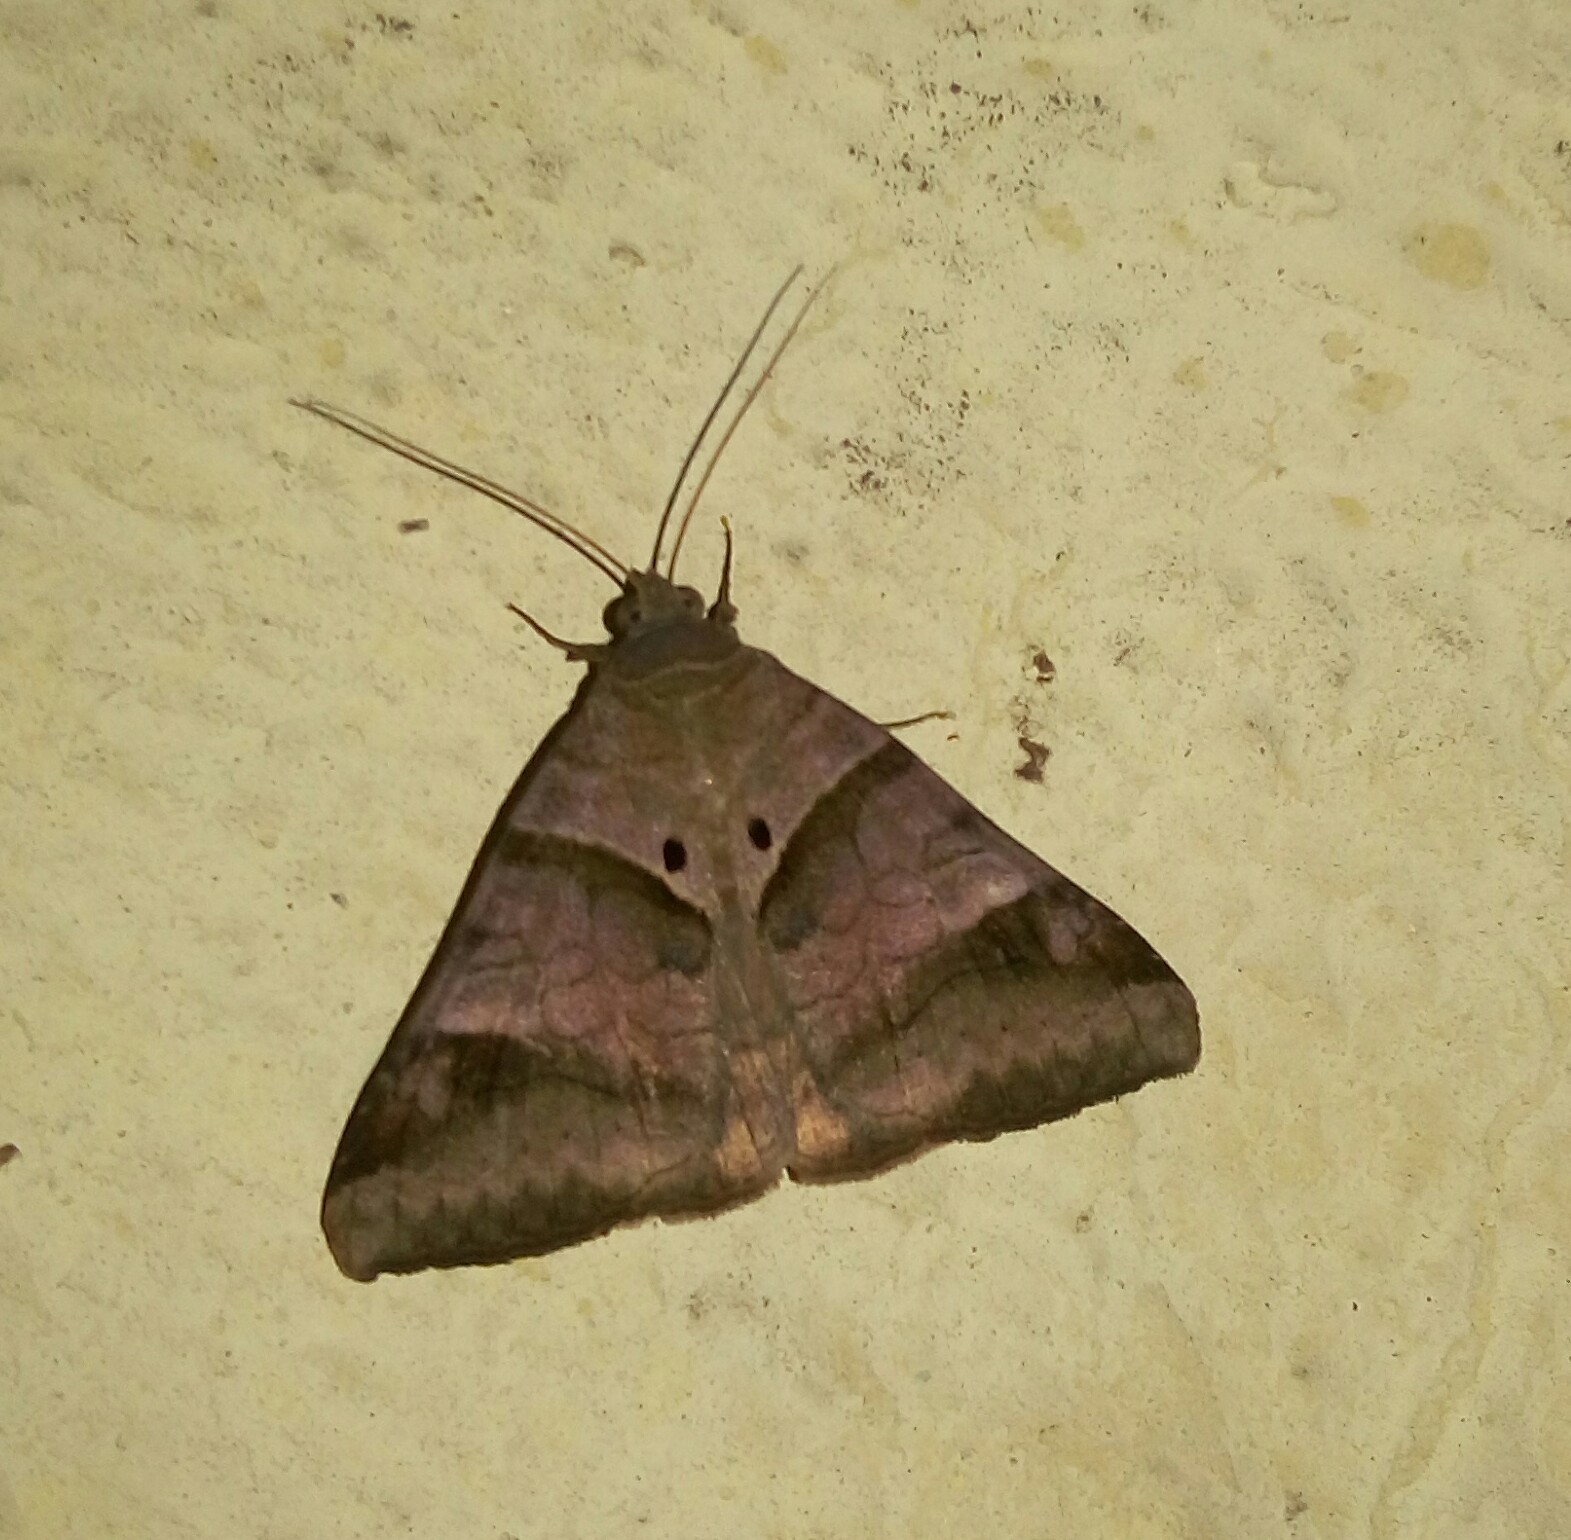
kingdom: Animalia
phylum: Arthropoda
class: Insecta
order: Lepidoptera
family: Erebidae
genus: Mocis
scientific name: Mocis undata
